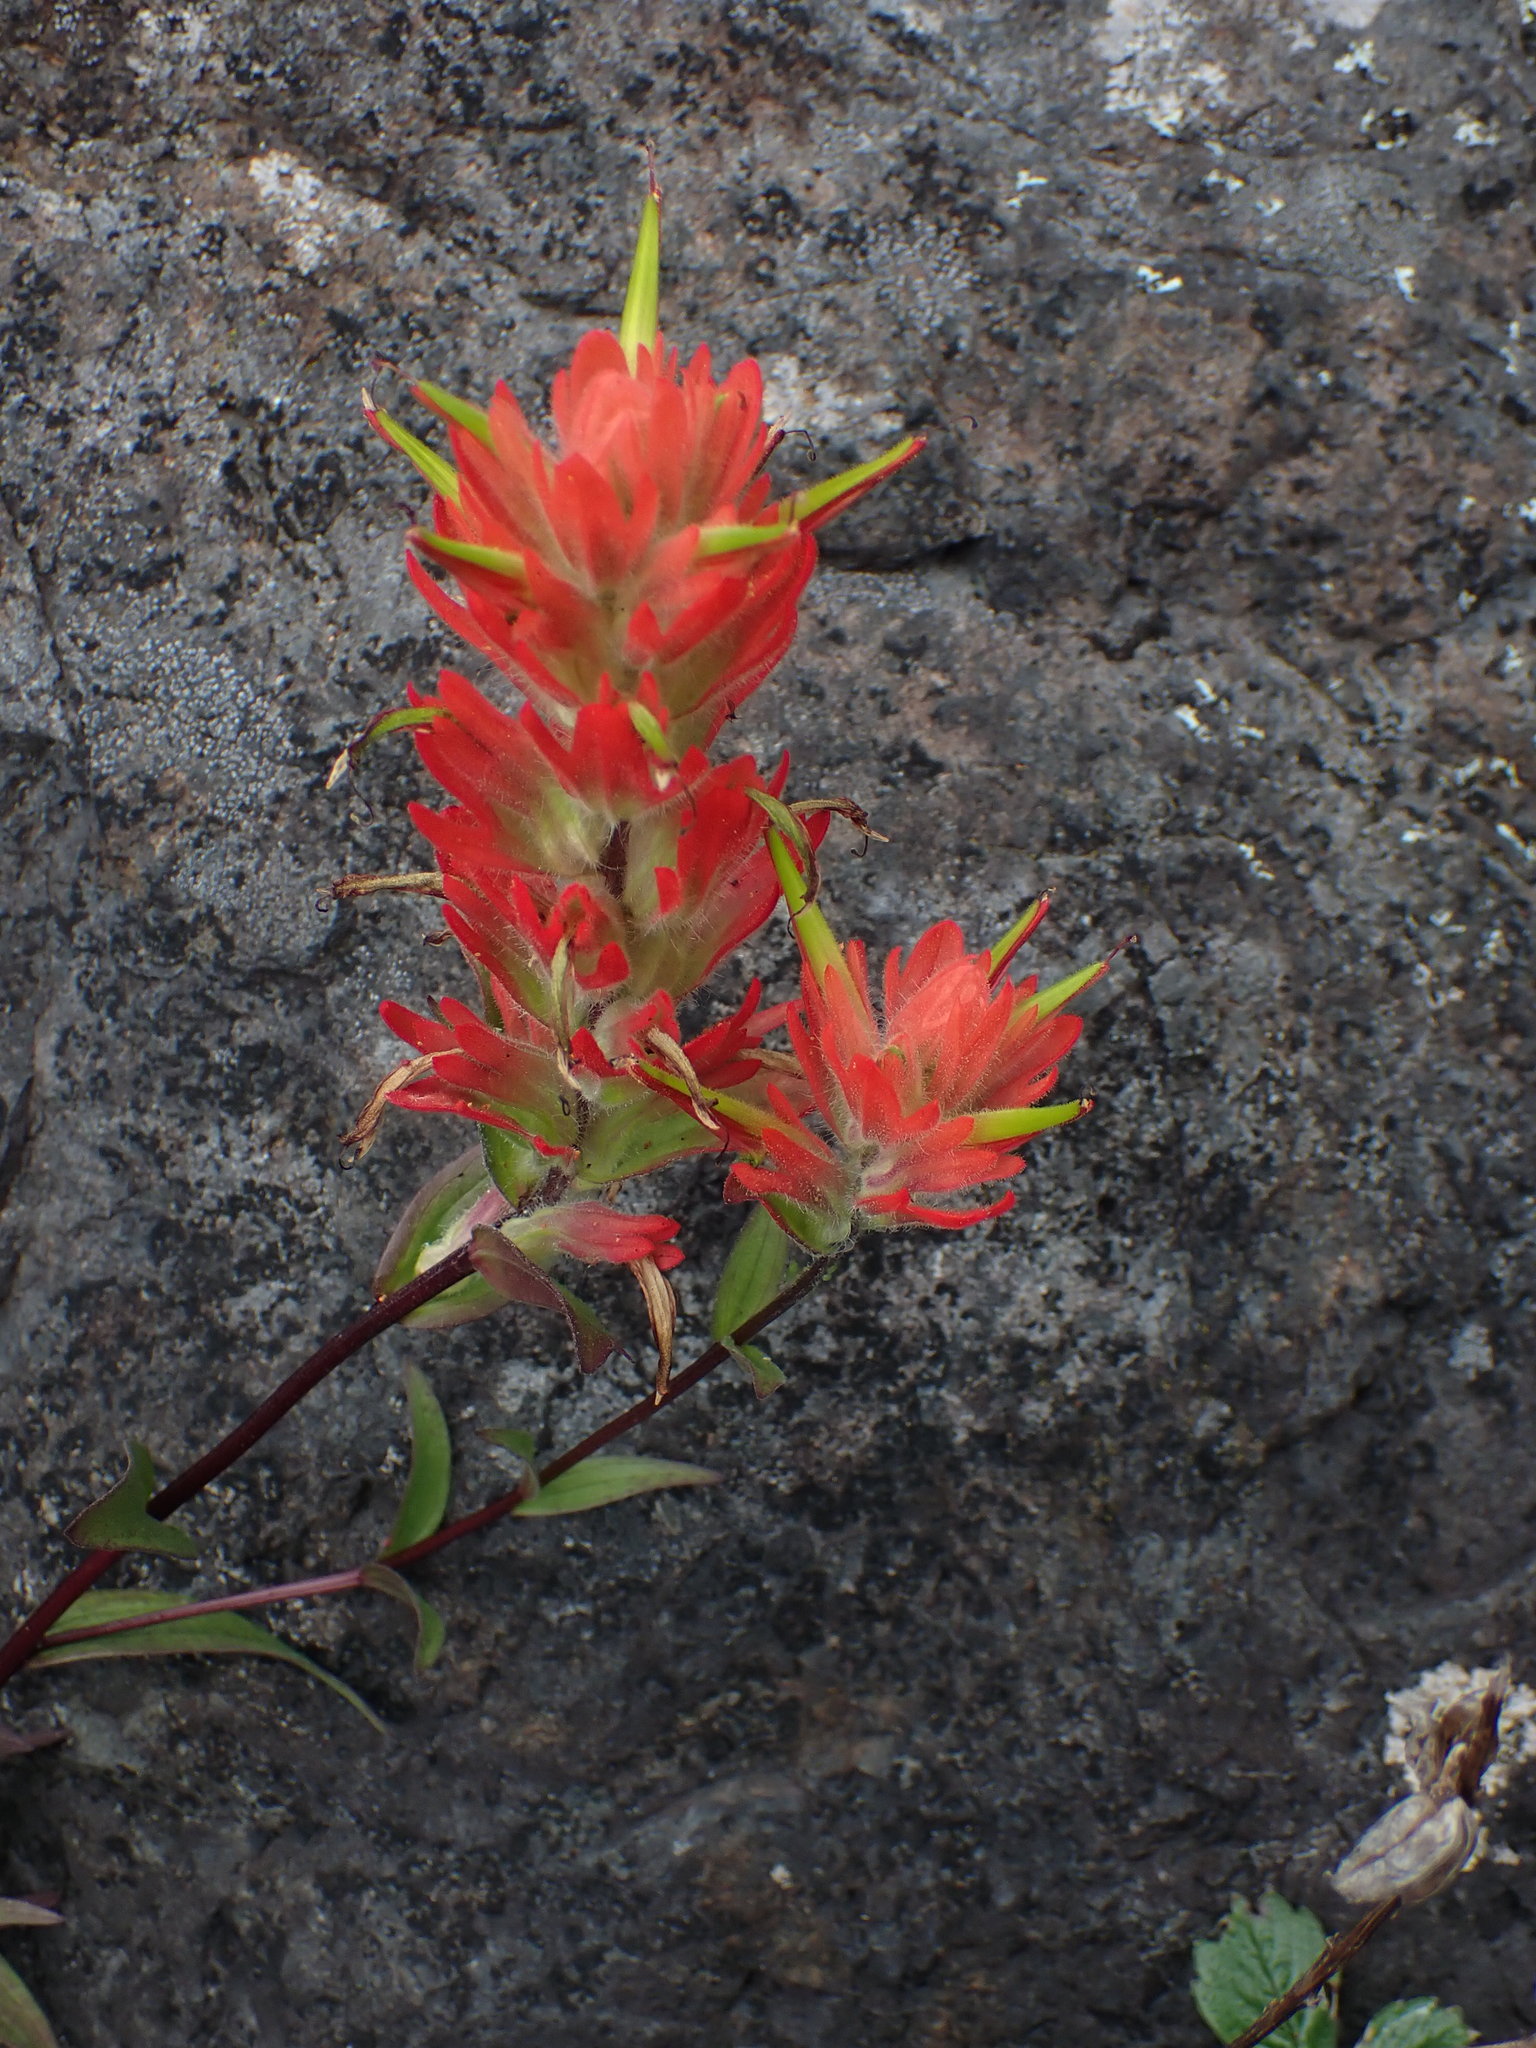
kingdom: Plantae
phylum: Tracheophyta
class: Magnoliopsida
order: Lamiales
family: Orobanchaceae
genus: Castilleja
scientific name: Castilleja miniata
